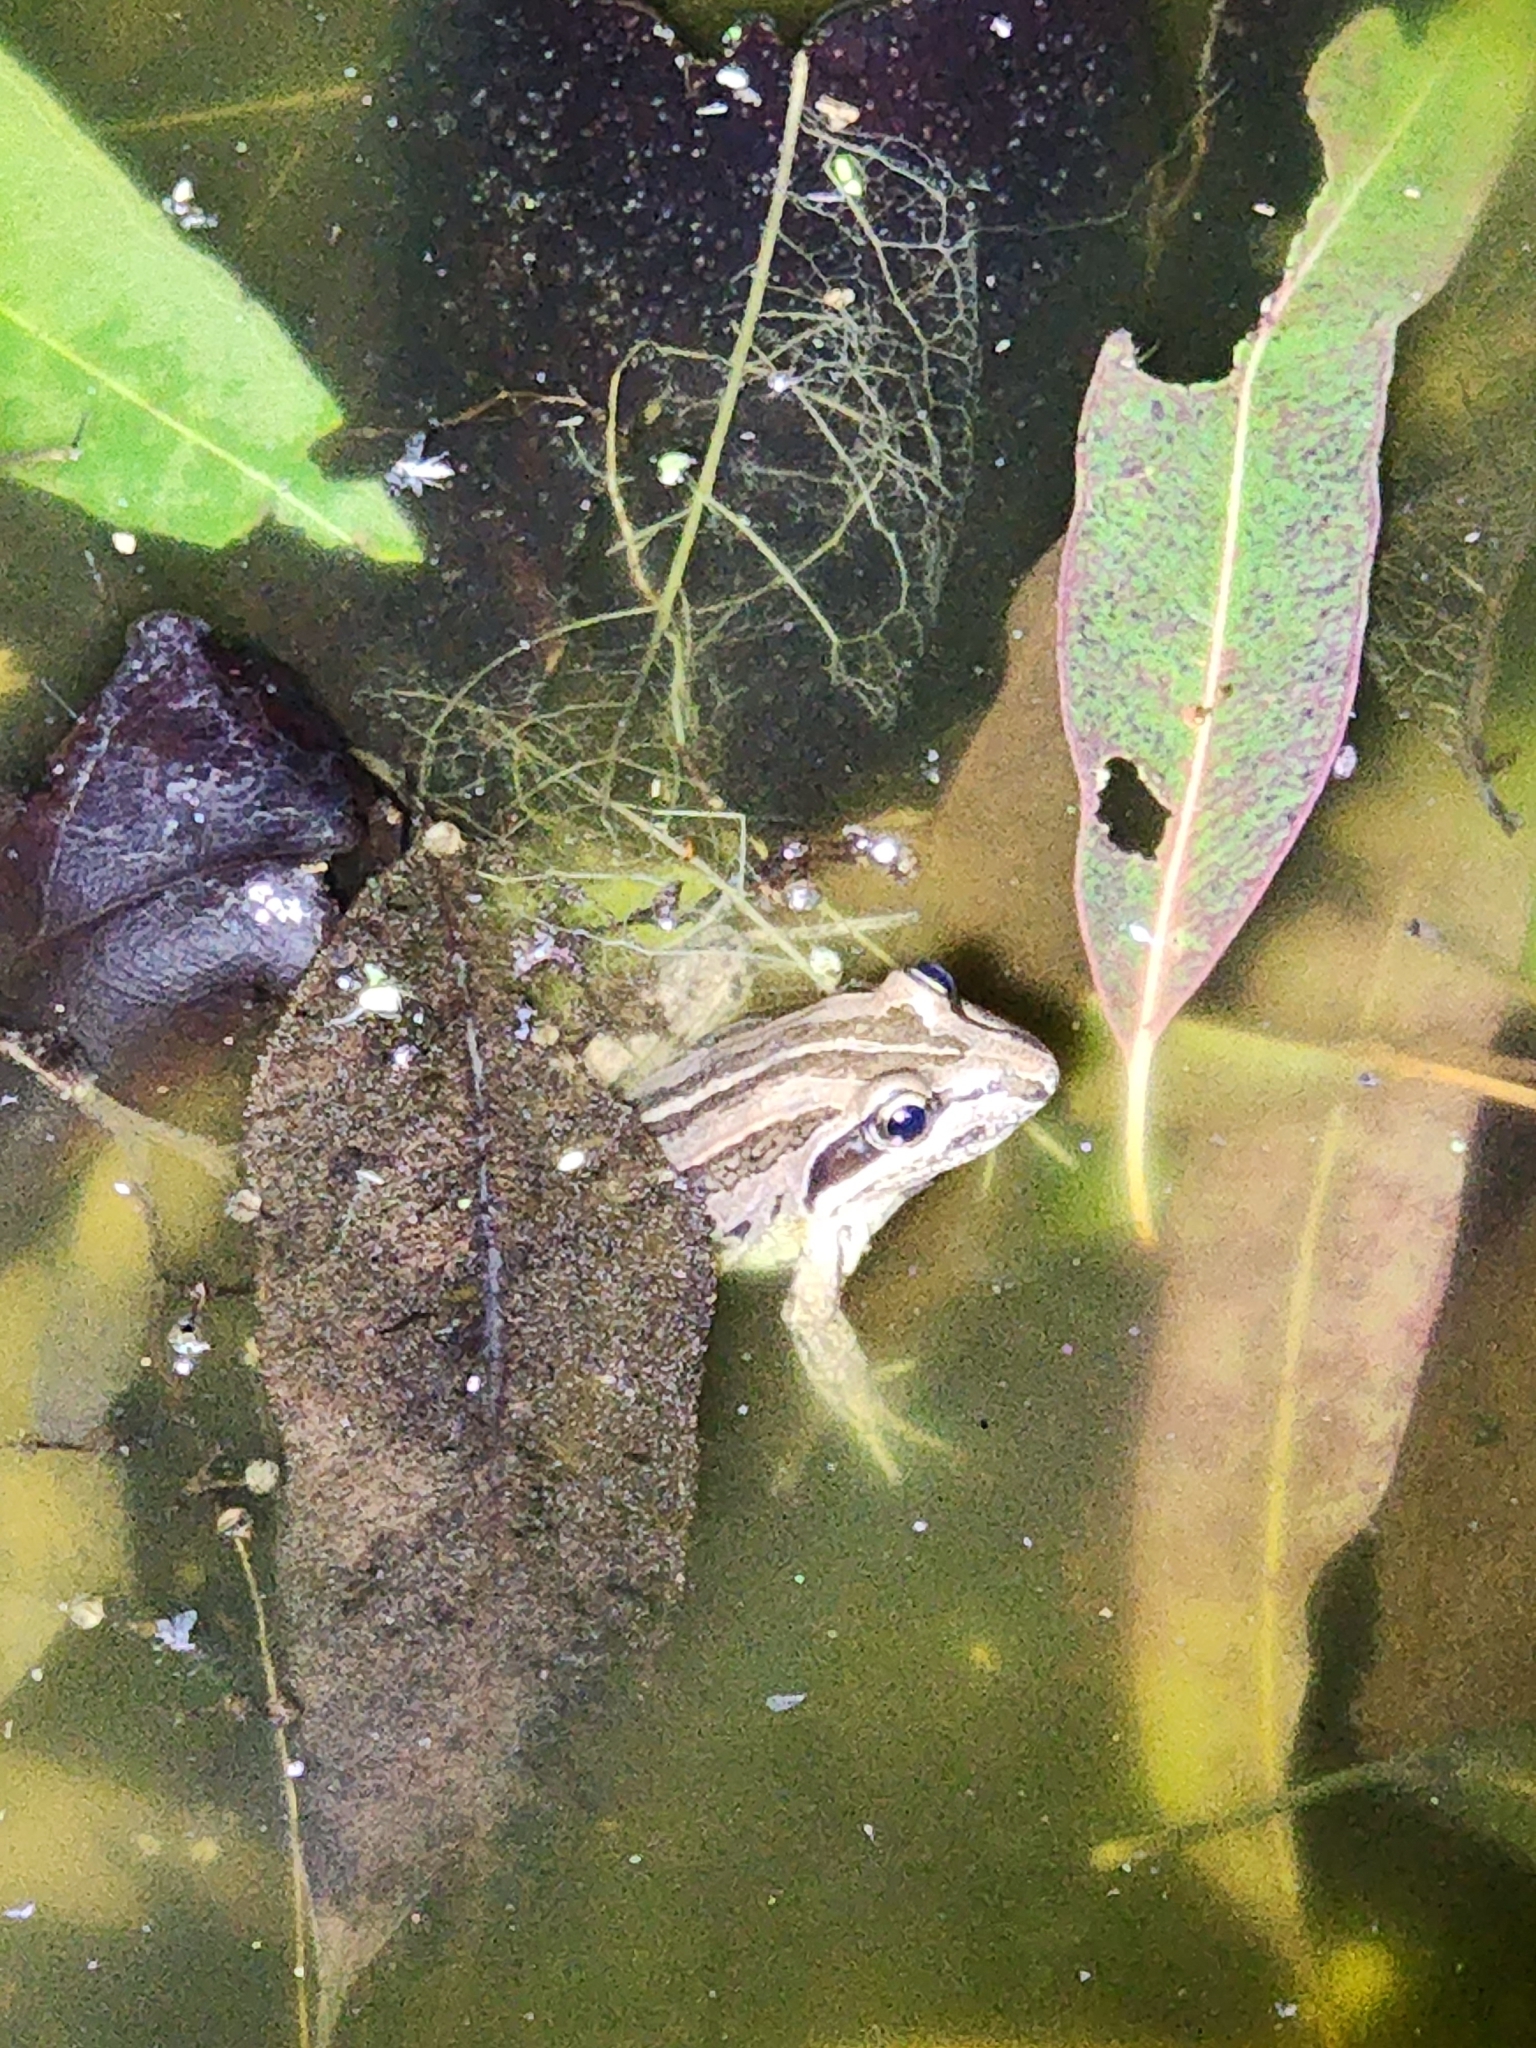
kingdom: Animalia
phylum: Chordata
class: Amphibia
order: Anura
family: Limnodynastidae
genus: Limnodynastes
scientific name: Limnodynastes peronii
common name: Brown frog
